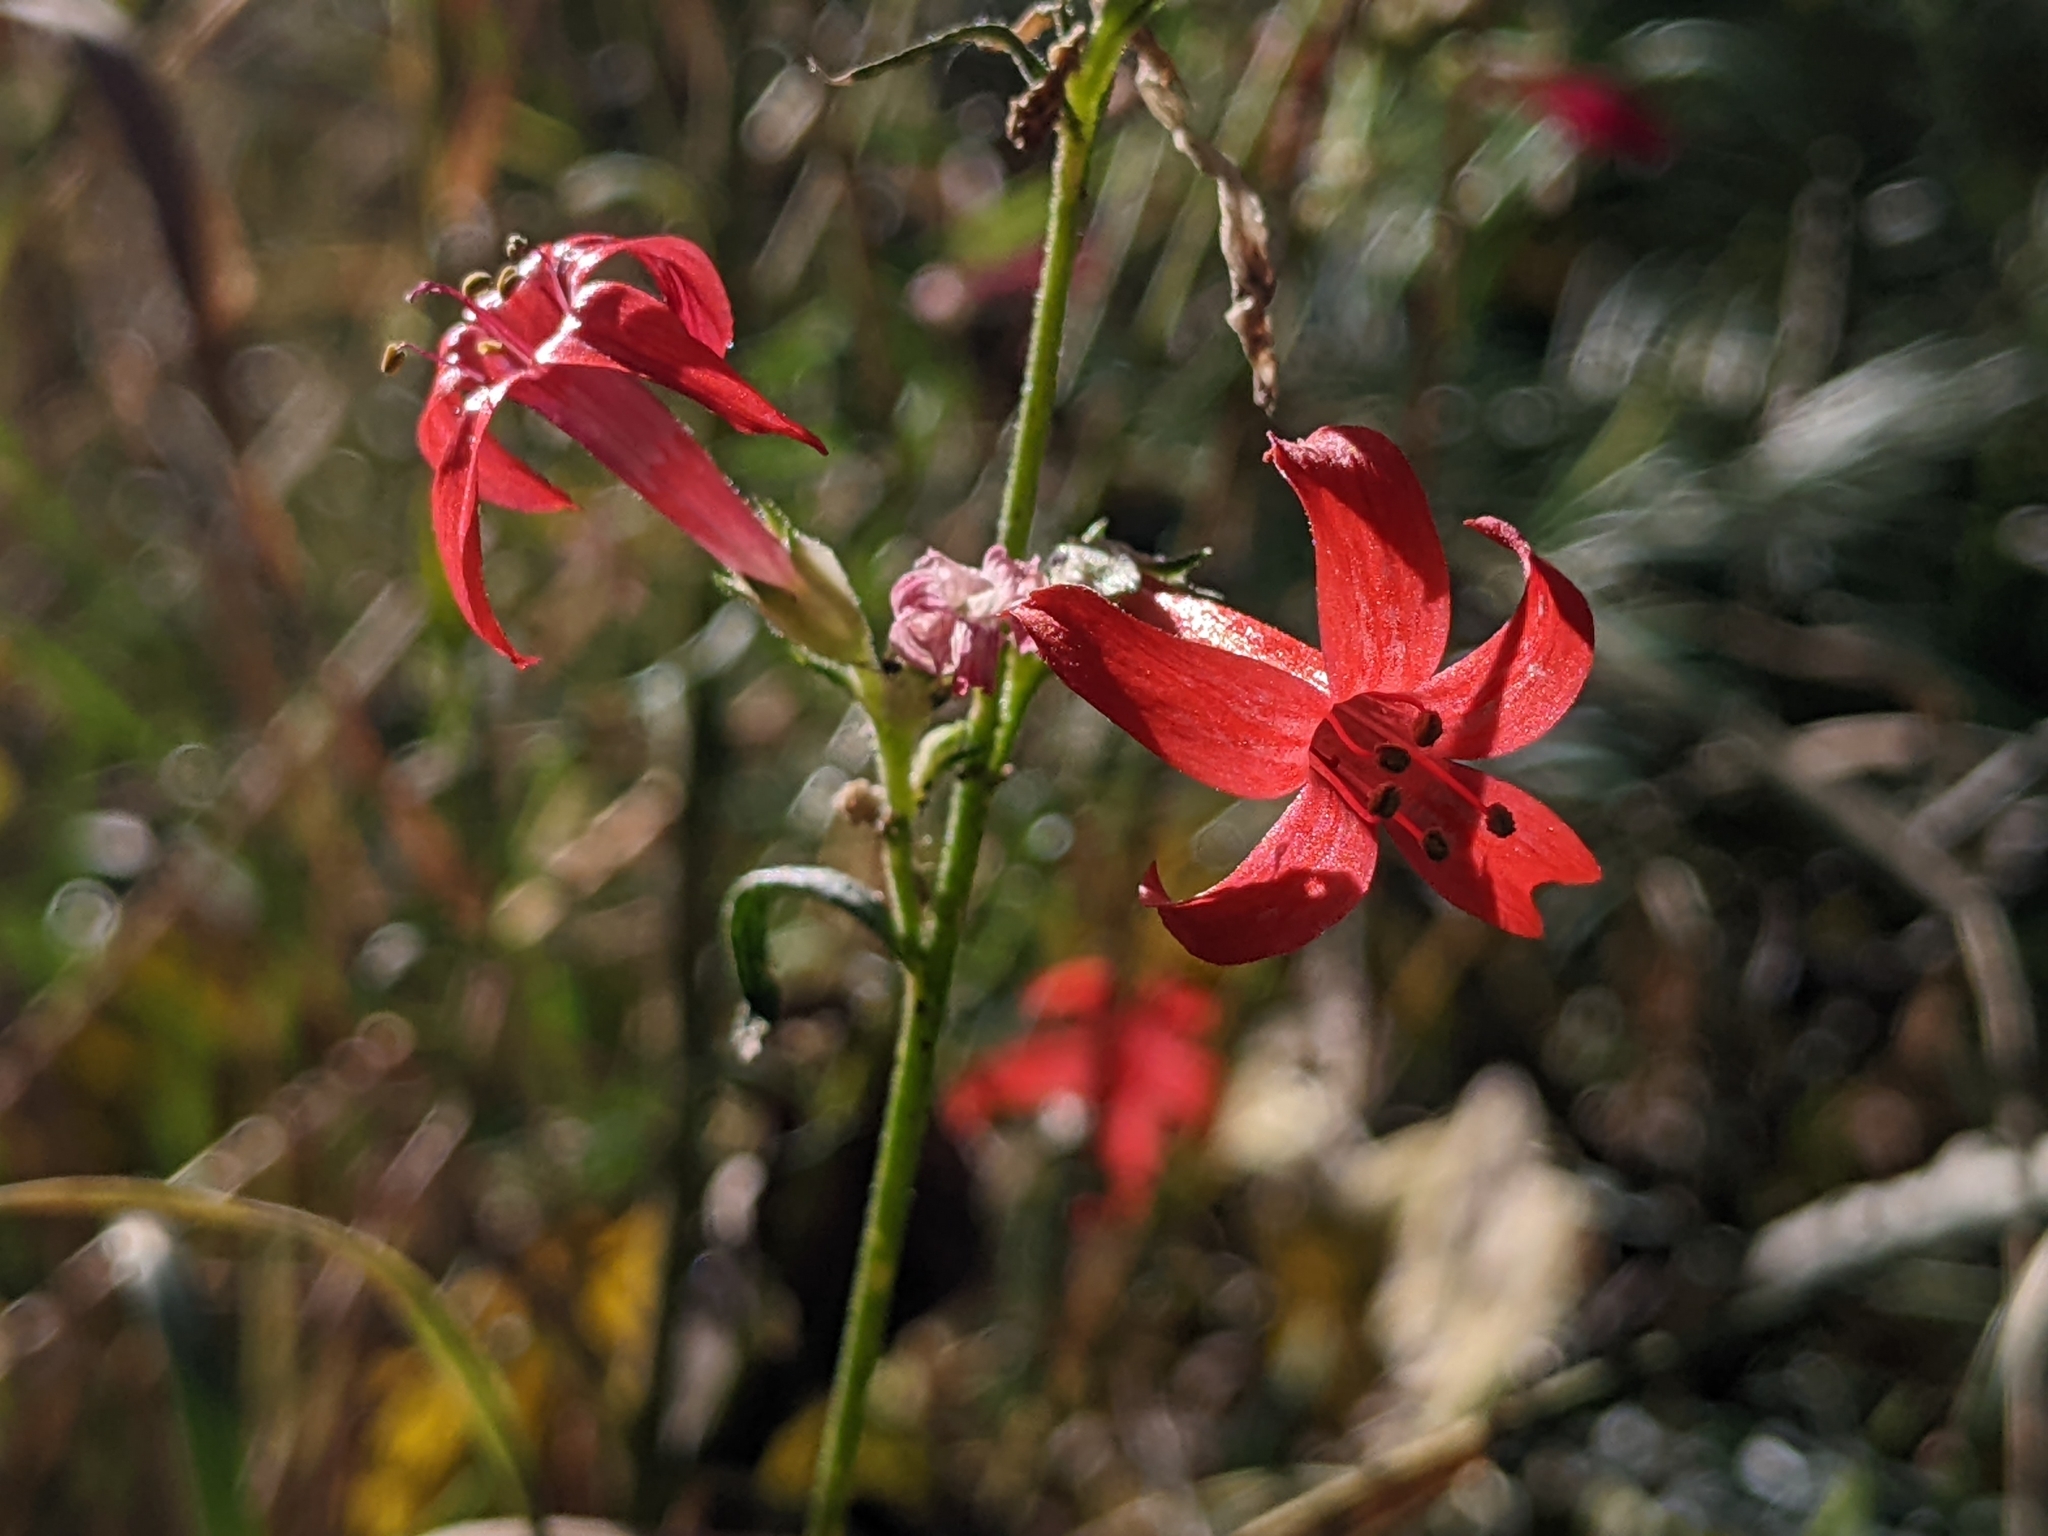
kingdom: Plantae
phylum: Tracheophyta
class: Magnoliopsida
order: Ericales
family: Polemoniaceae
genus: Ipomopsis
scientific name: Ipomopsis aggregata
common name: Scarlet gilia
